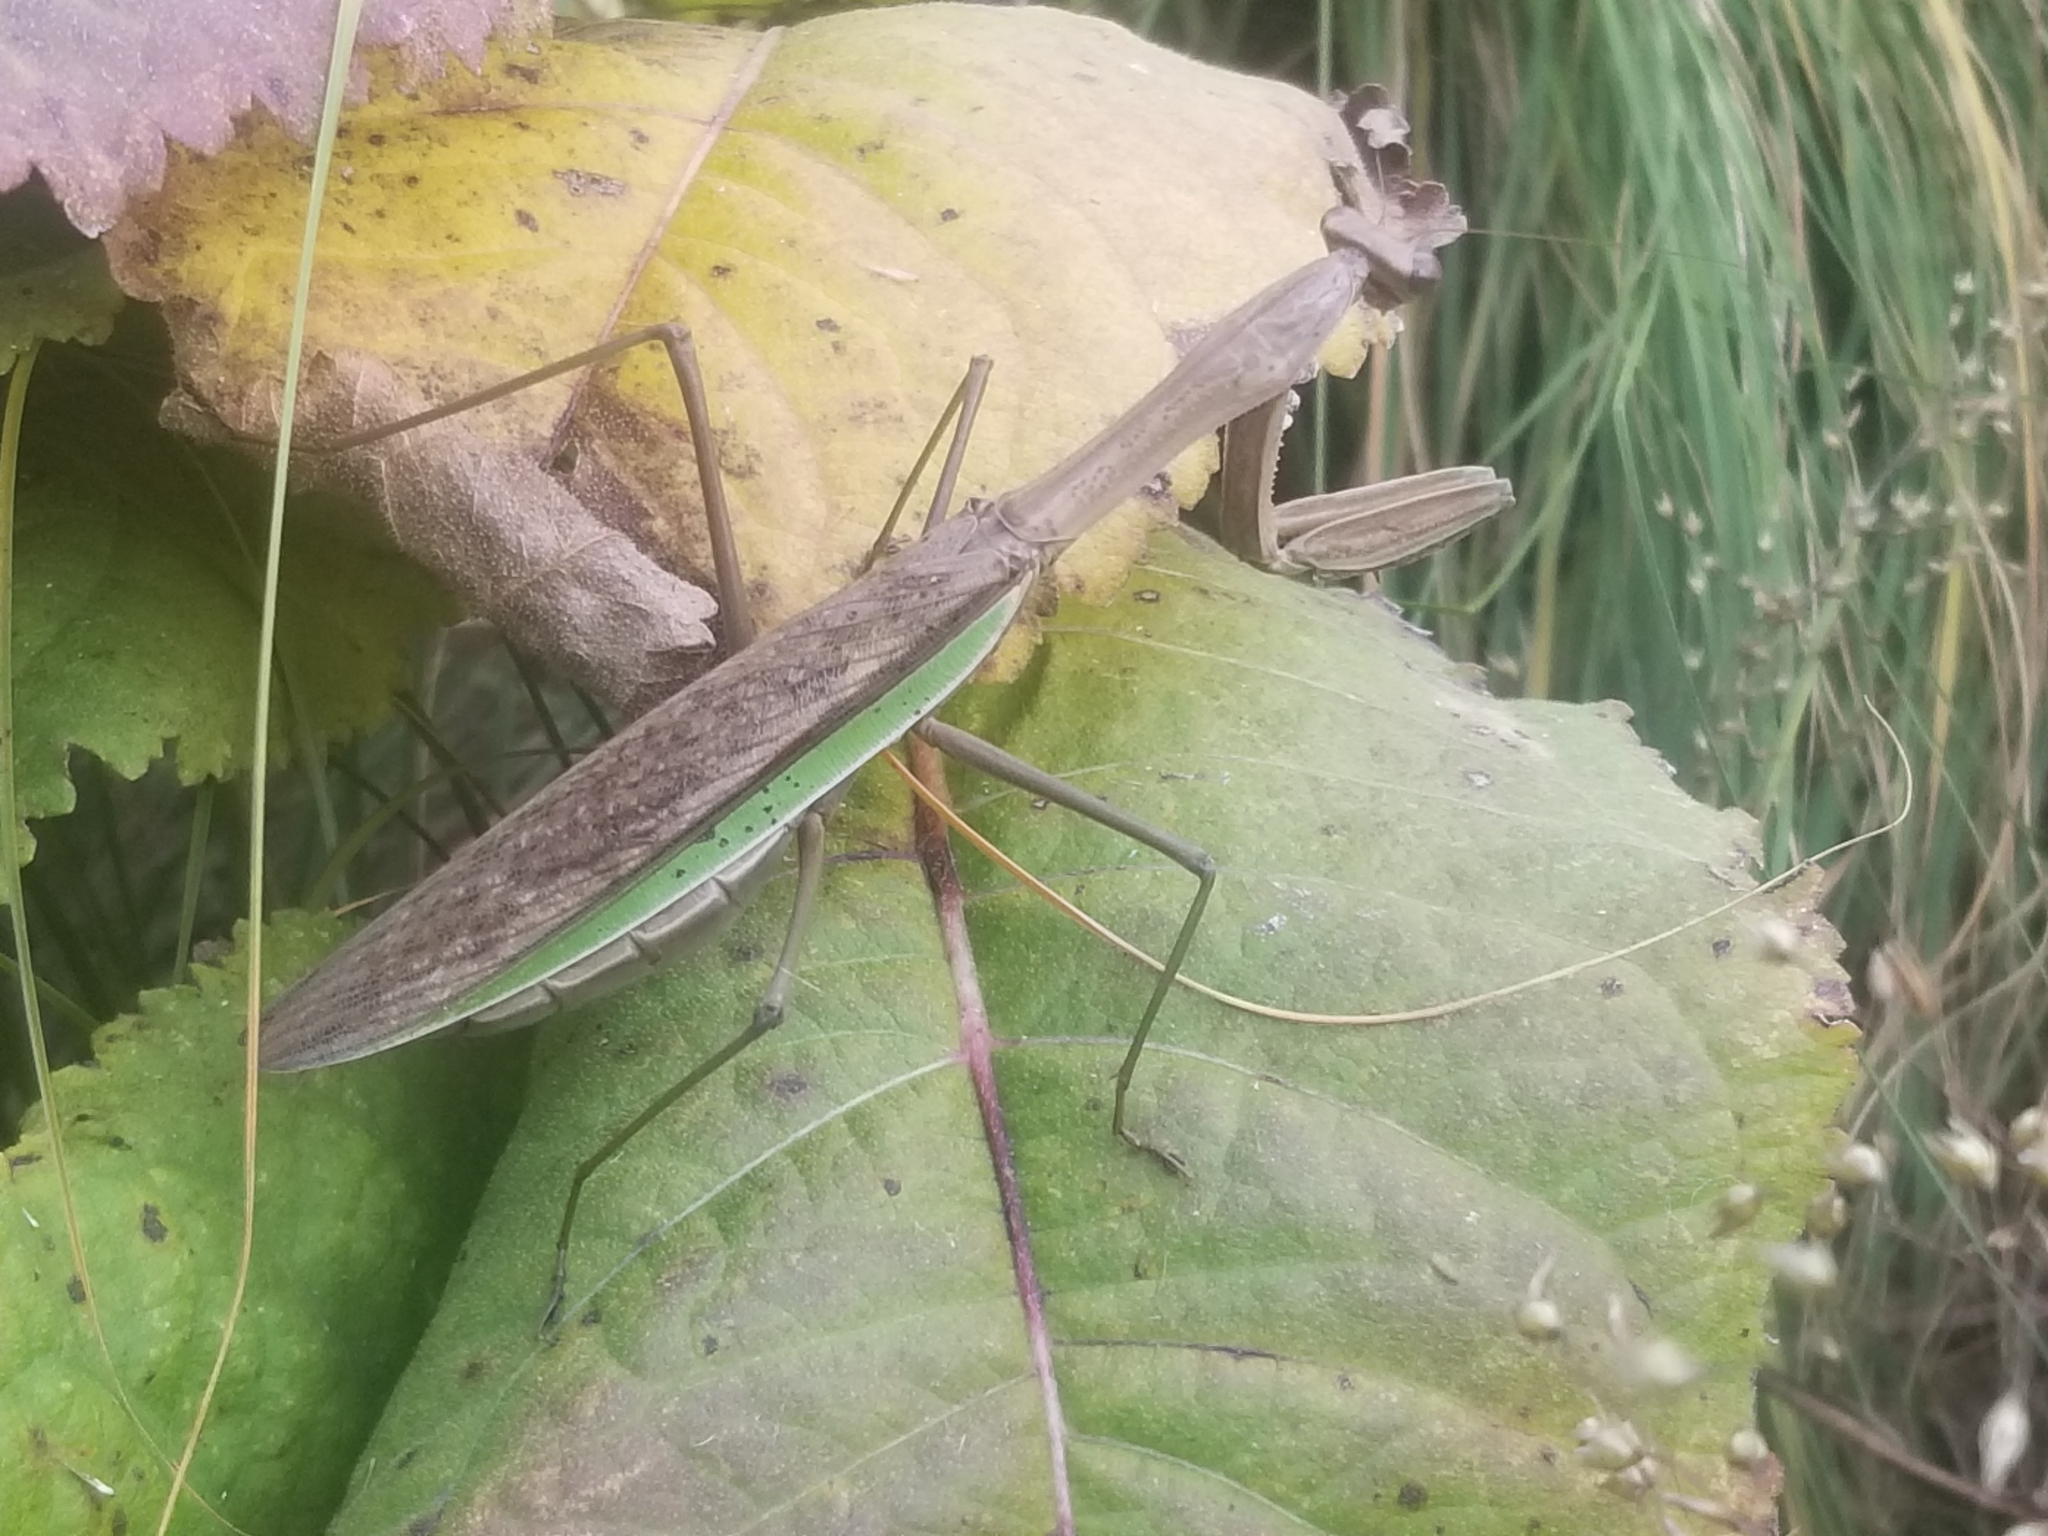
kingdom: Animalia
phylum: Arthropoda
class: Insecta
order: Mantodea
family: Mantidae
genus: Tenodera
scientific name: Tenodera sinensis
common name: Chinese mantis
